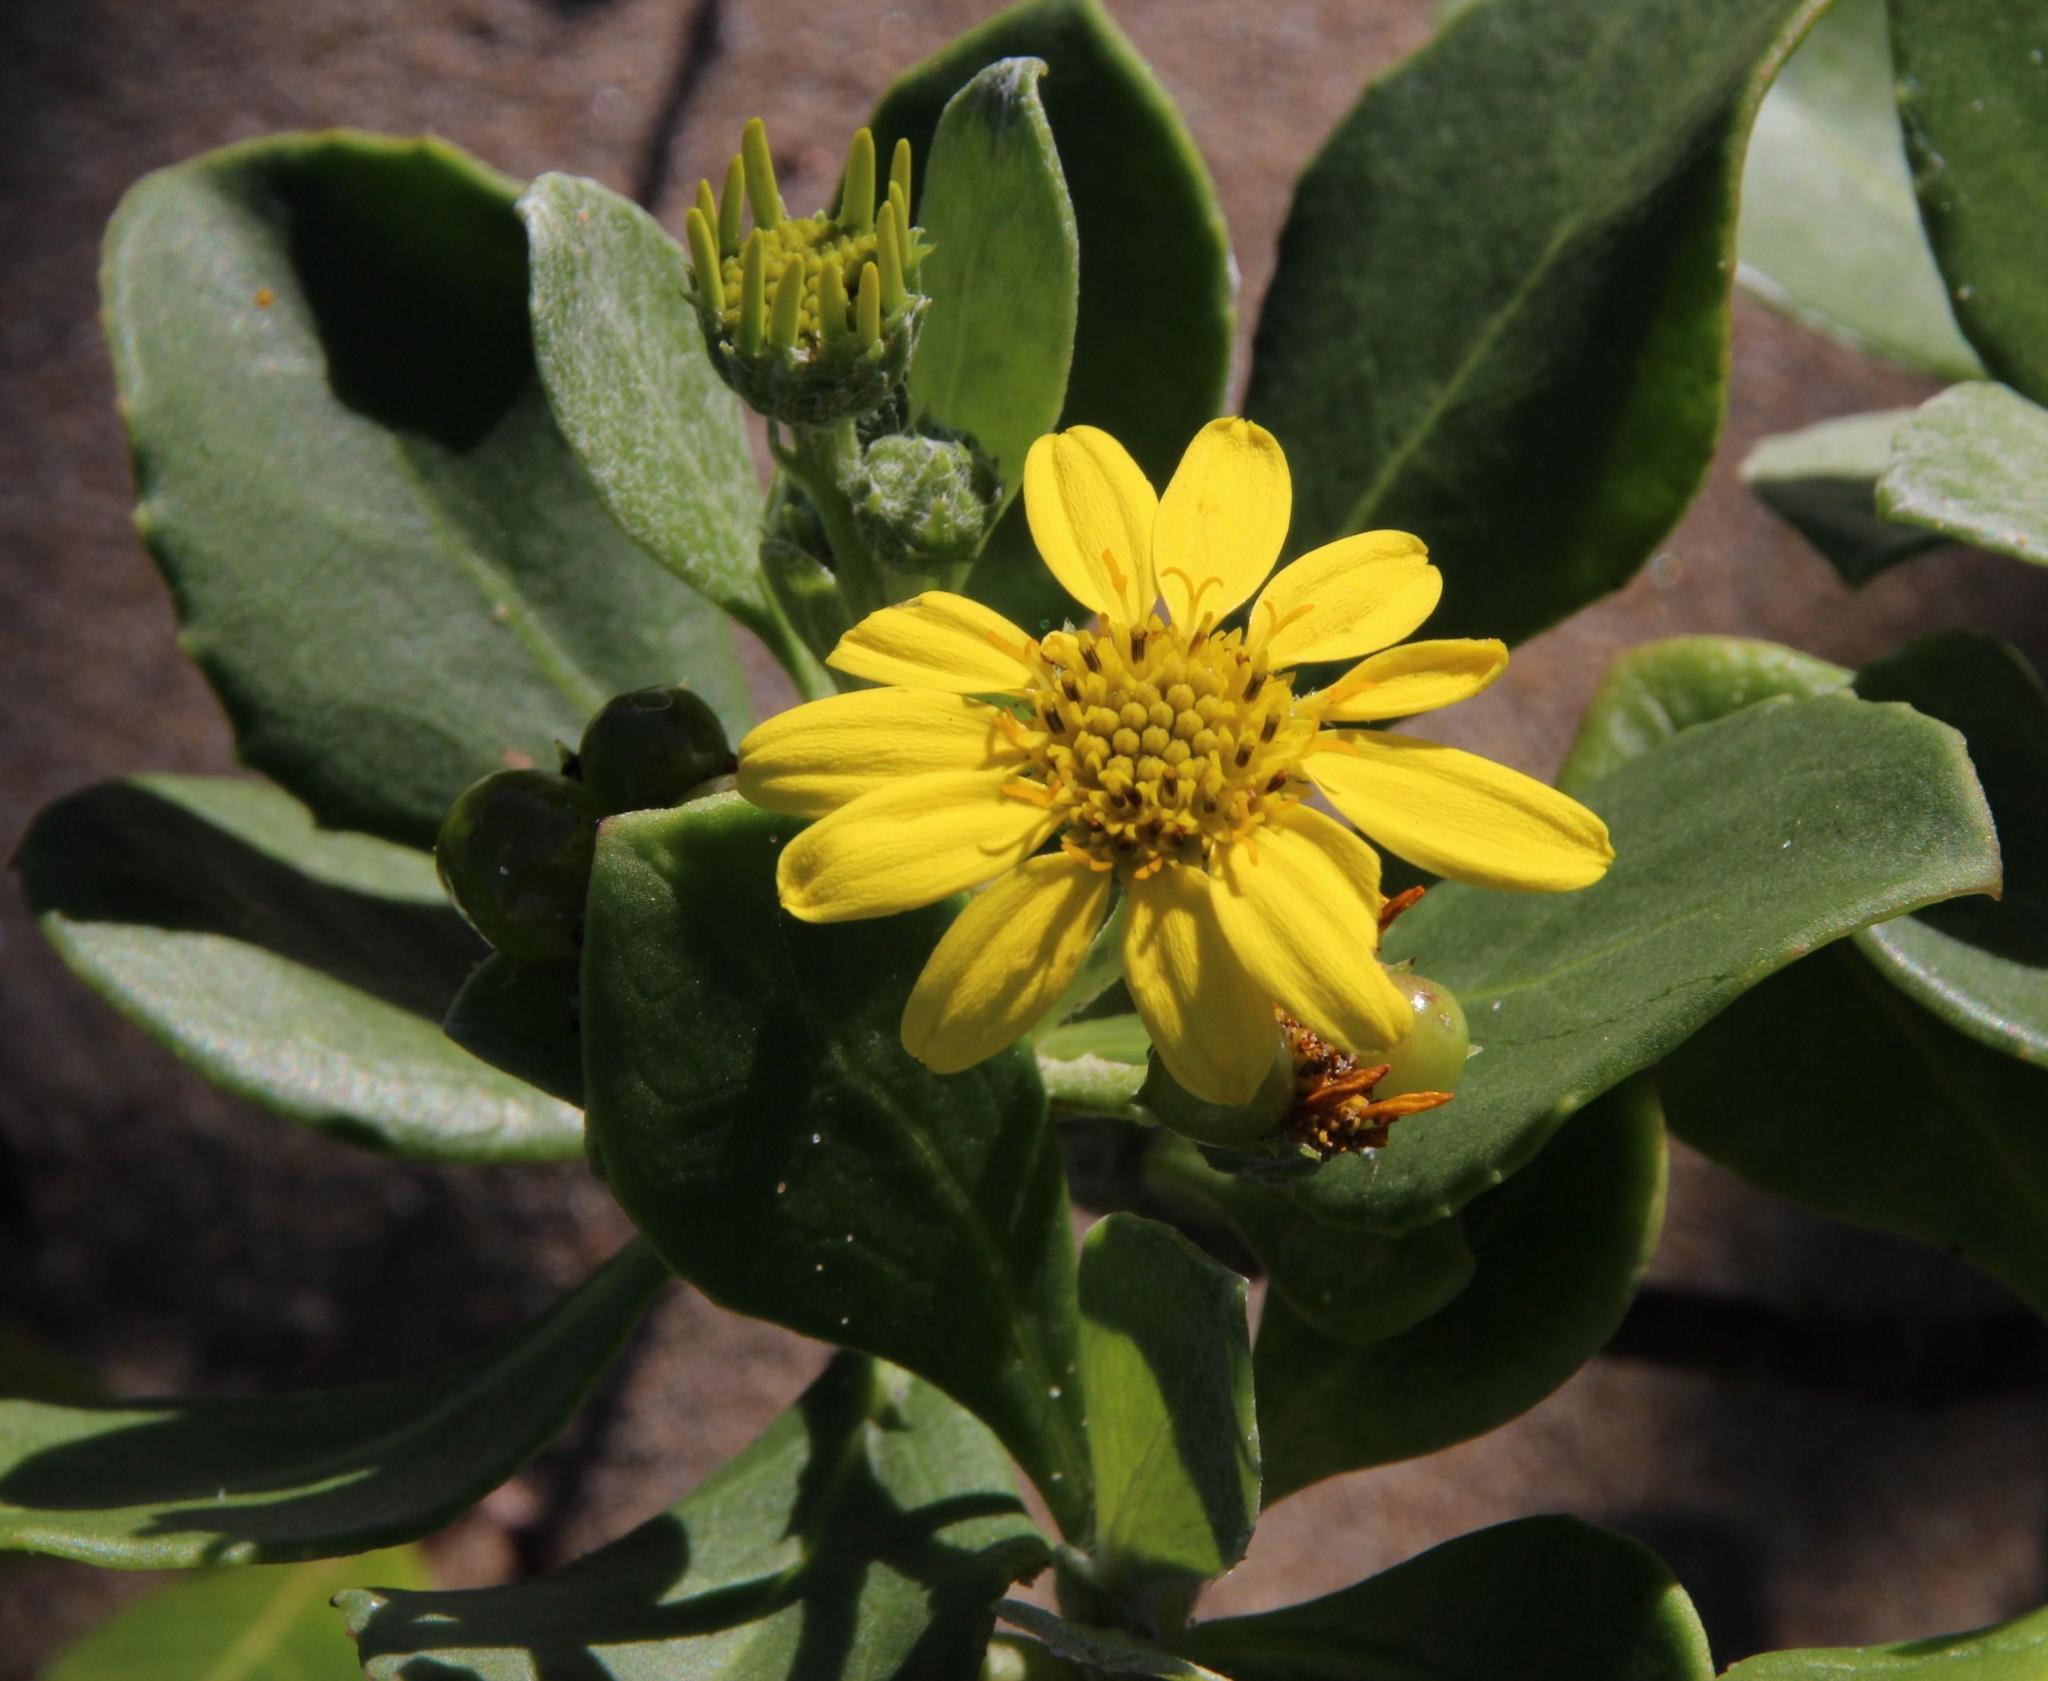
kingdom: Plantae
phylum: Tracheophyta
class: Magnoliopsida
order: Asterales
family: Asteraceae
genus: Osteospermum
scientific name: Osteospermum moniliferum
